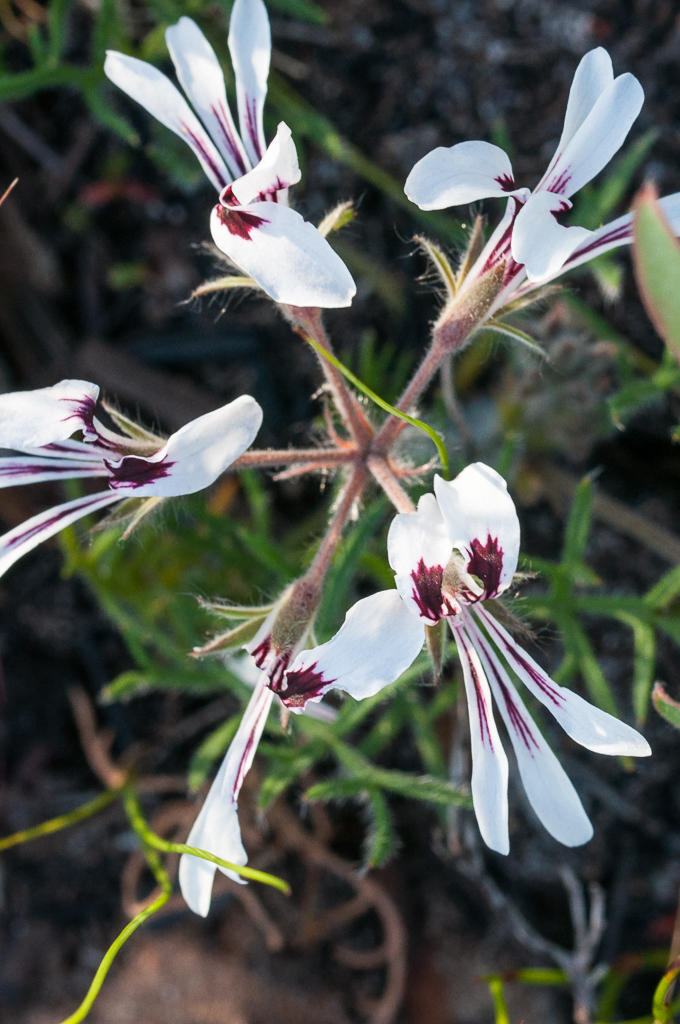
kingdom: Plantae
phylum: Tracheophyta
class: Magnoliopsida
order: Geraniales
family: Geraniaceae
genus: Pelargonium
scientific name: Pelargonium psammophilum
